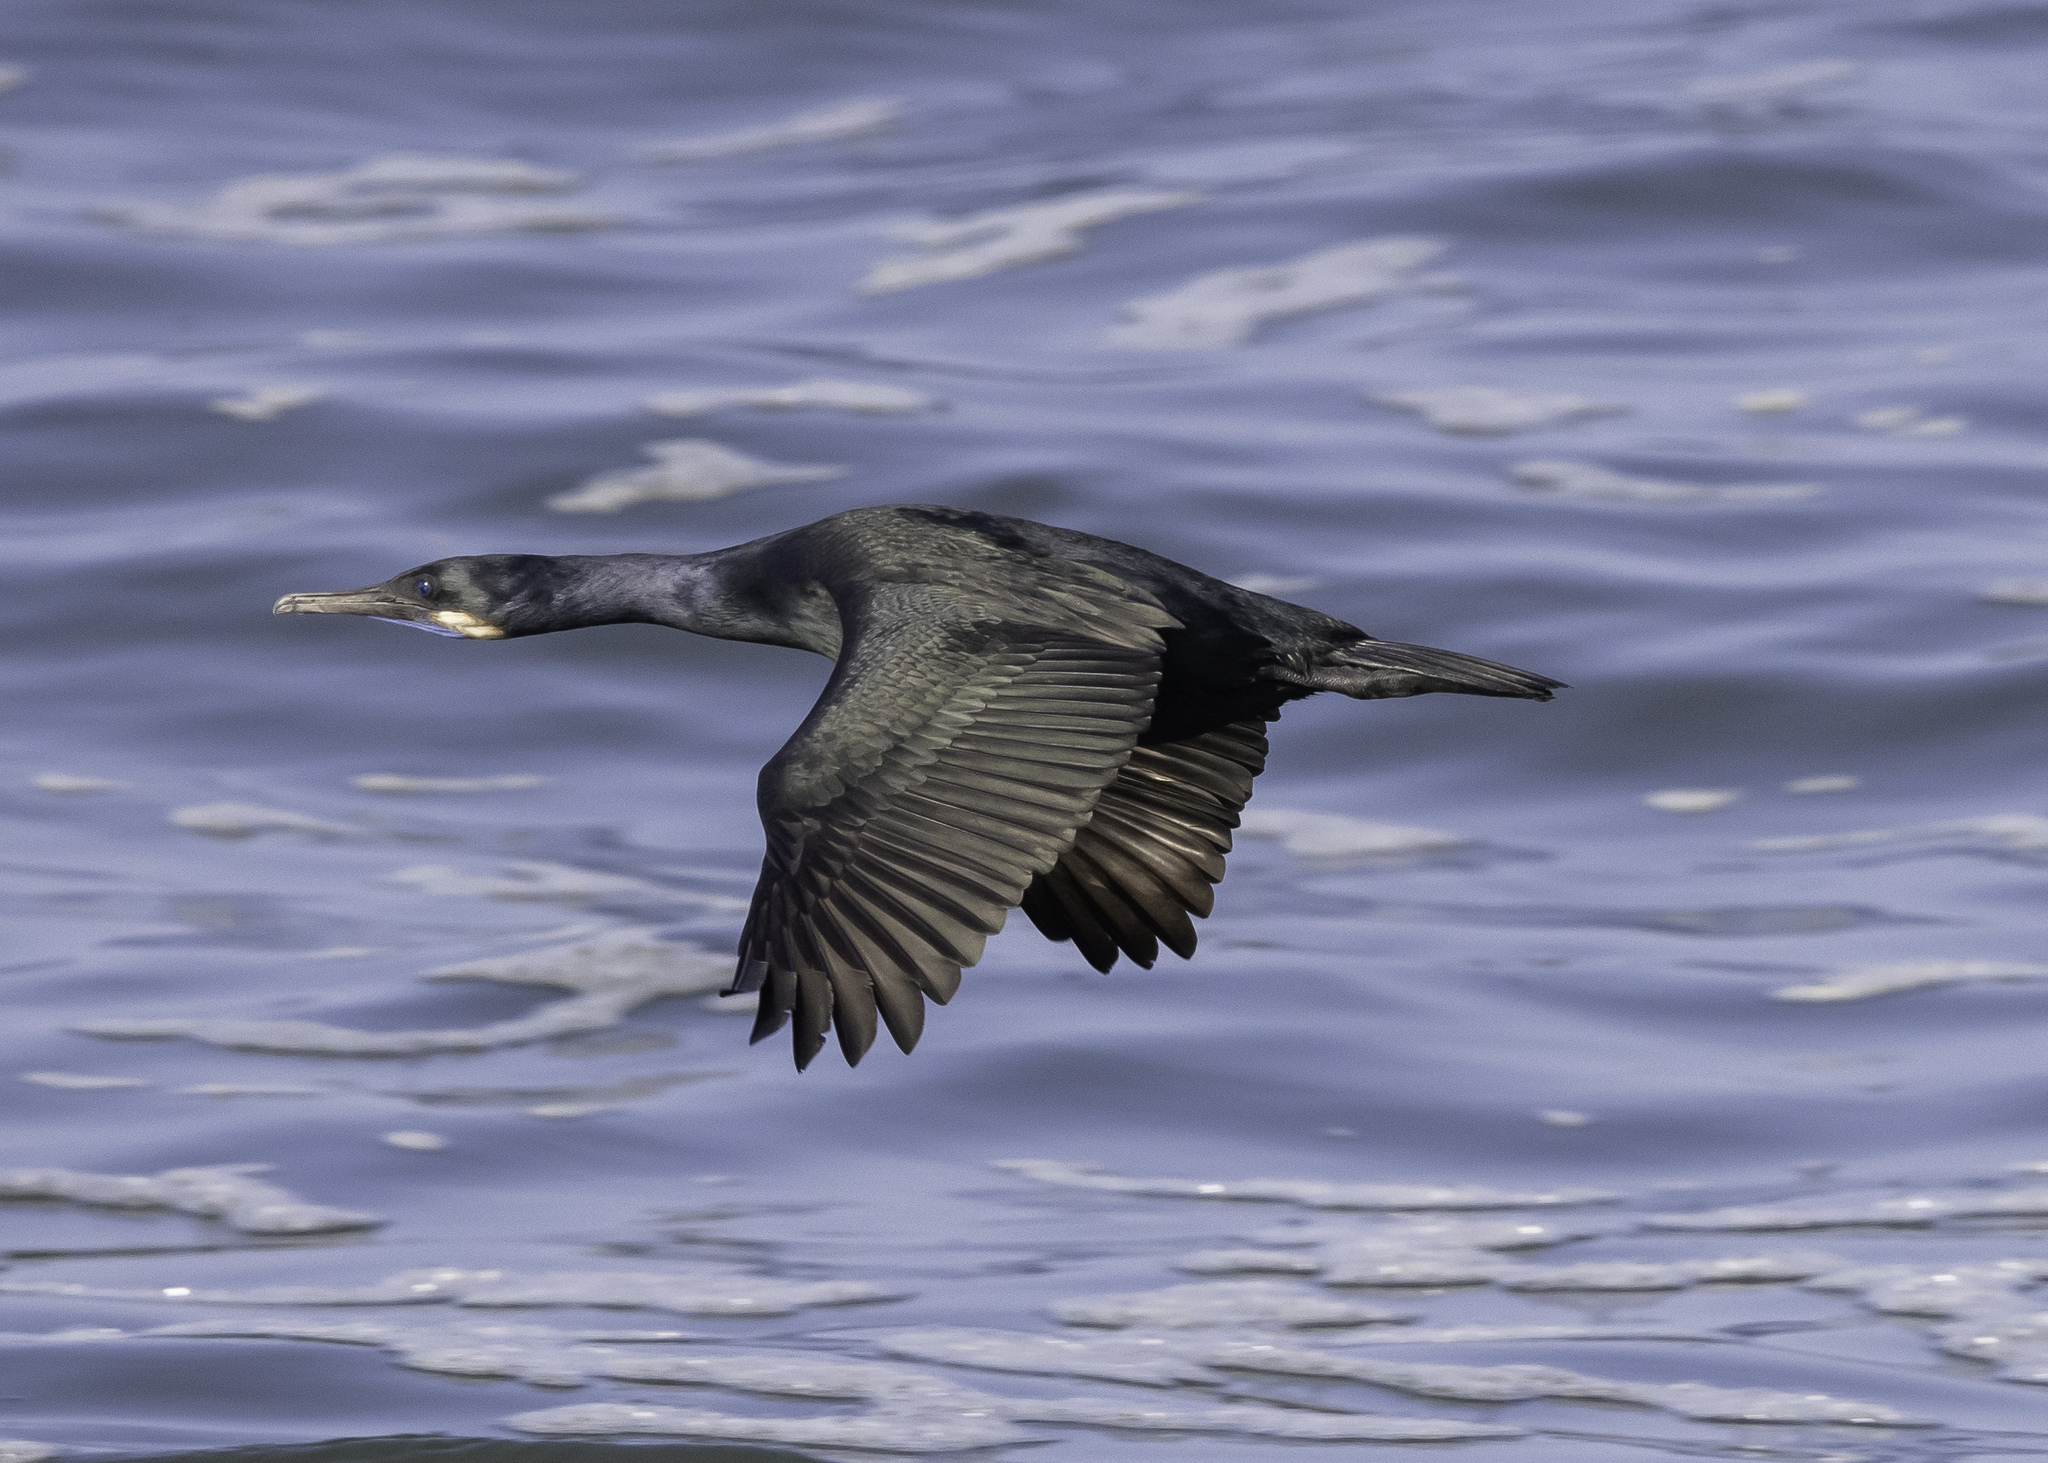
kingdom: Animalia
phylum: Chordata
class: Aves
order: Suliformes
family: Phalacrocoracidae
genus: Urile
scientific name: Urile penicillatus
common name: Brandt's cormorant
